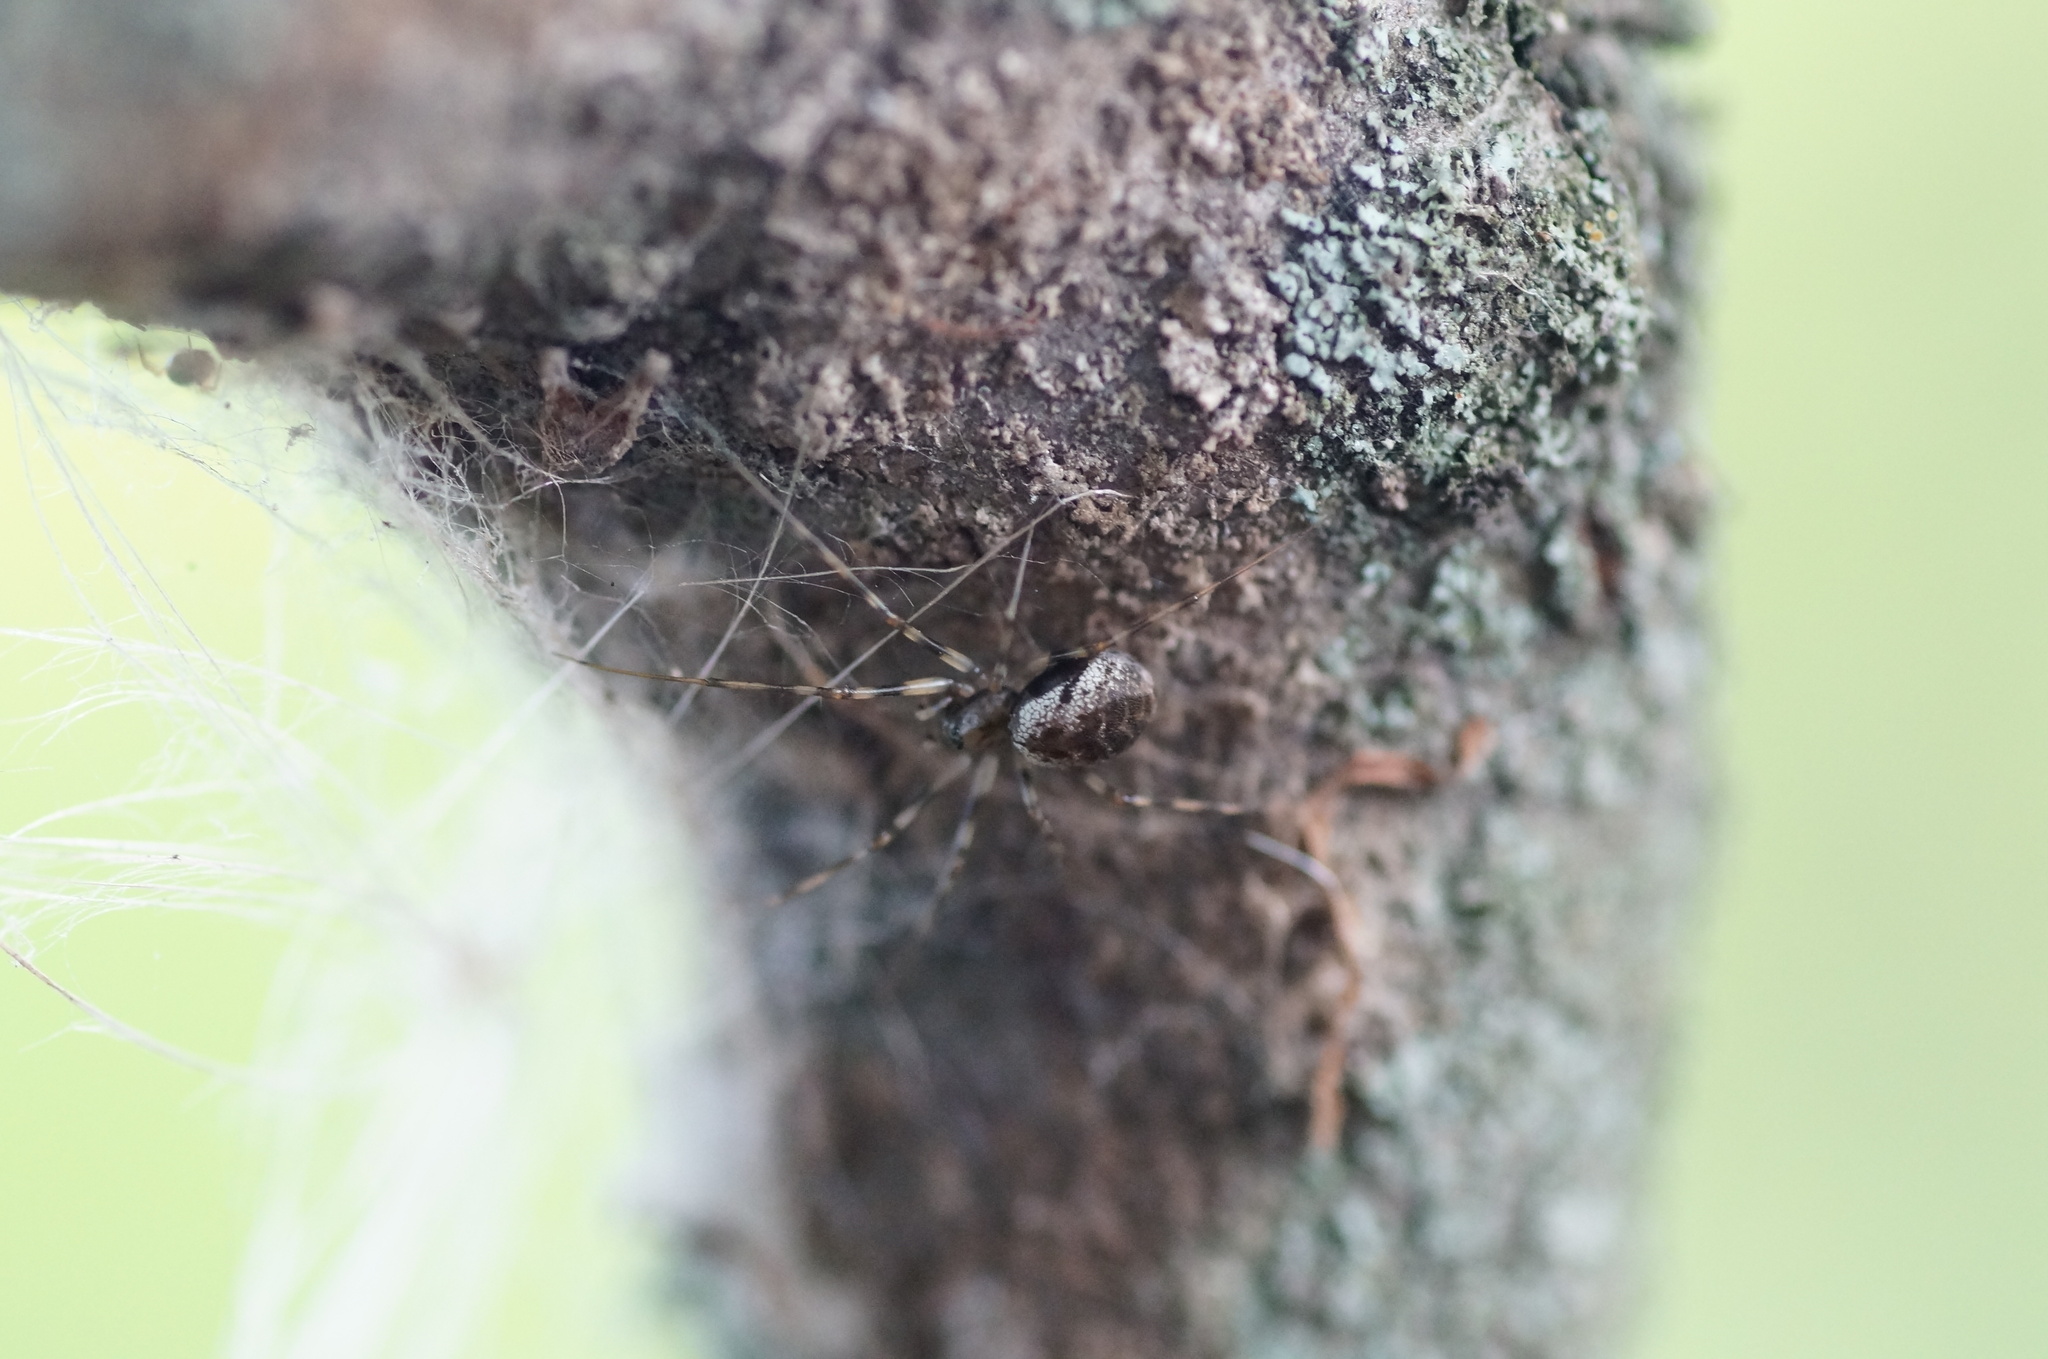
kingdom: Animalia
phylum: Arthropoda
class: Arachnida
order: Araneae
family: Linyphiidae
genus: Drapetisca
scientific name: Drapetisca socialis
